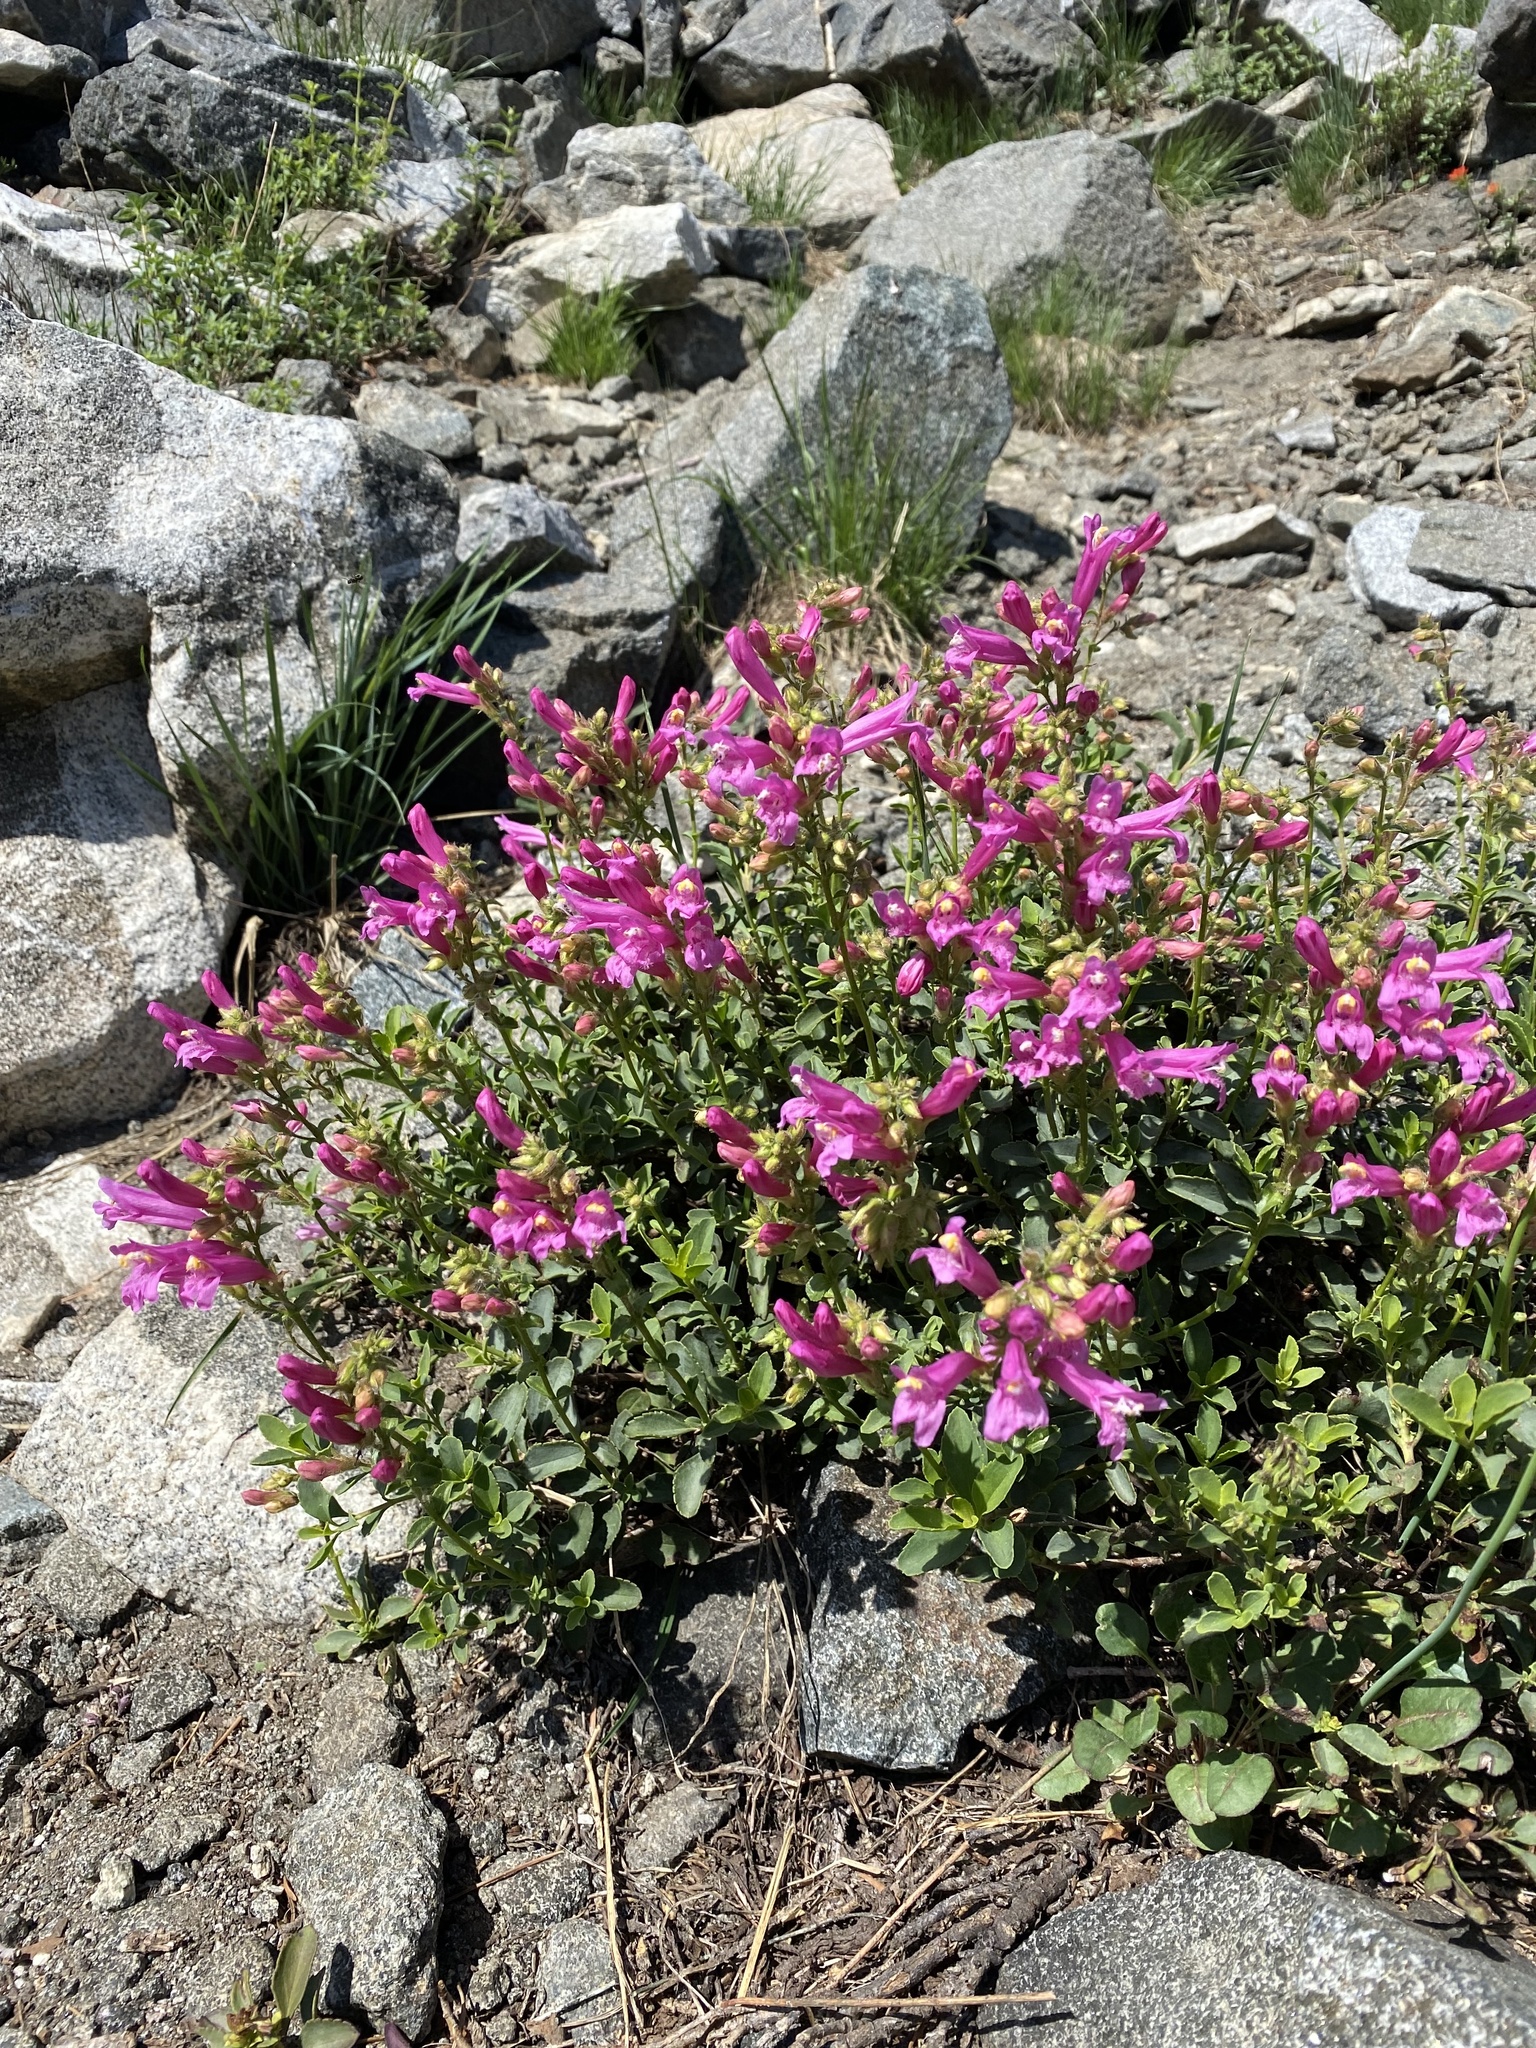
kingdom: Plantae
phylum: Tracheophyta
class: Magnoliopsida
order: Lamiales
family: Plantaginaceae
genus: Penstemon
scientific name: Penstemon newberryi
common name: Mountain-pride
